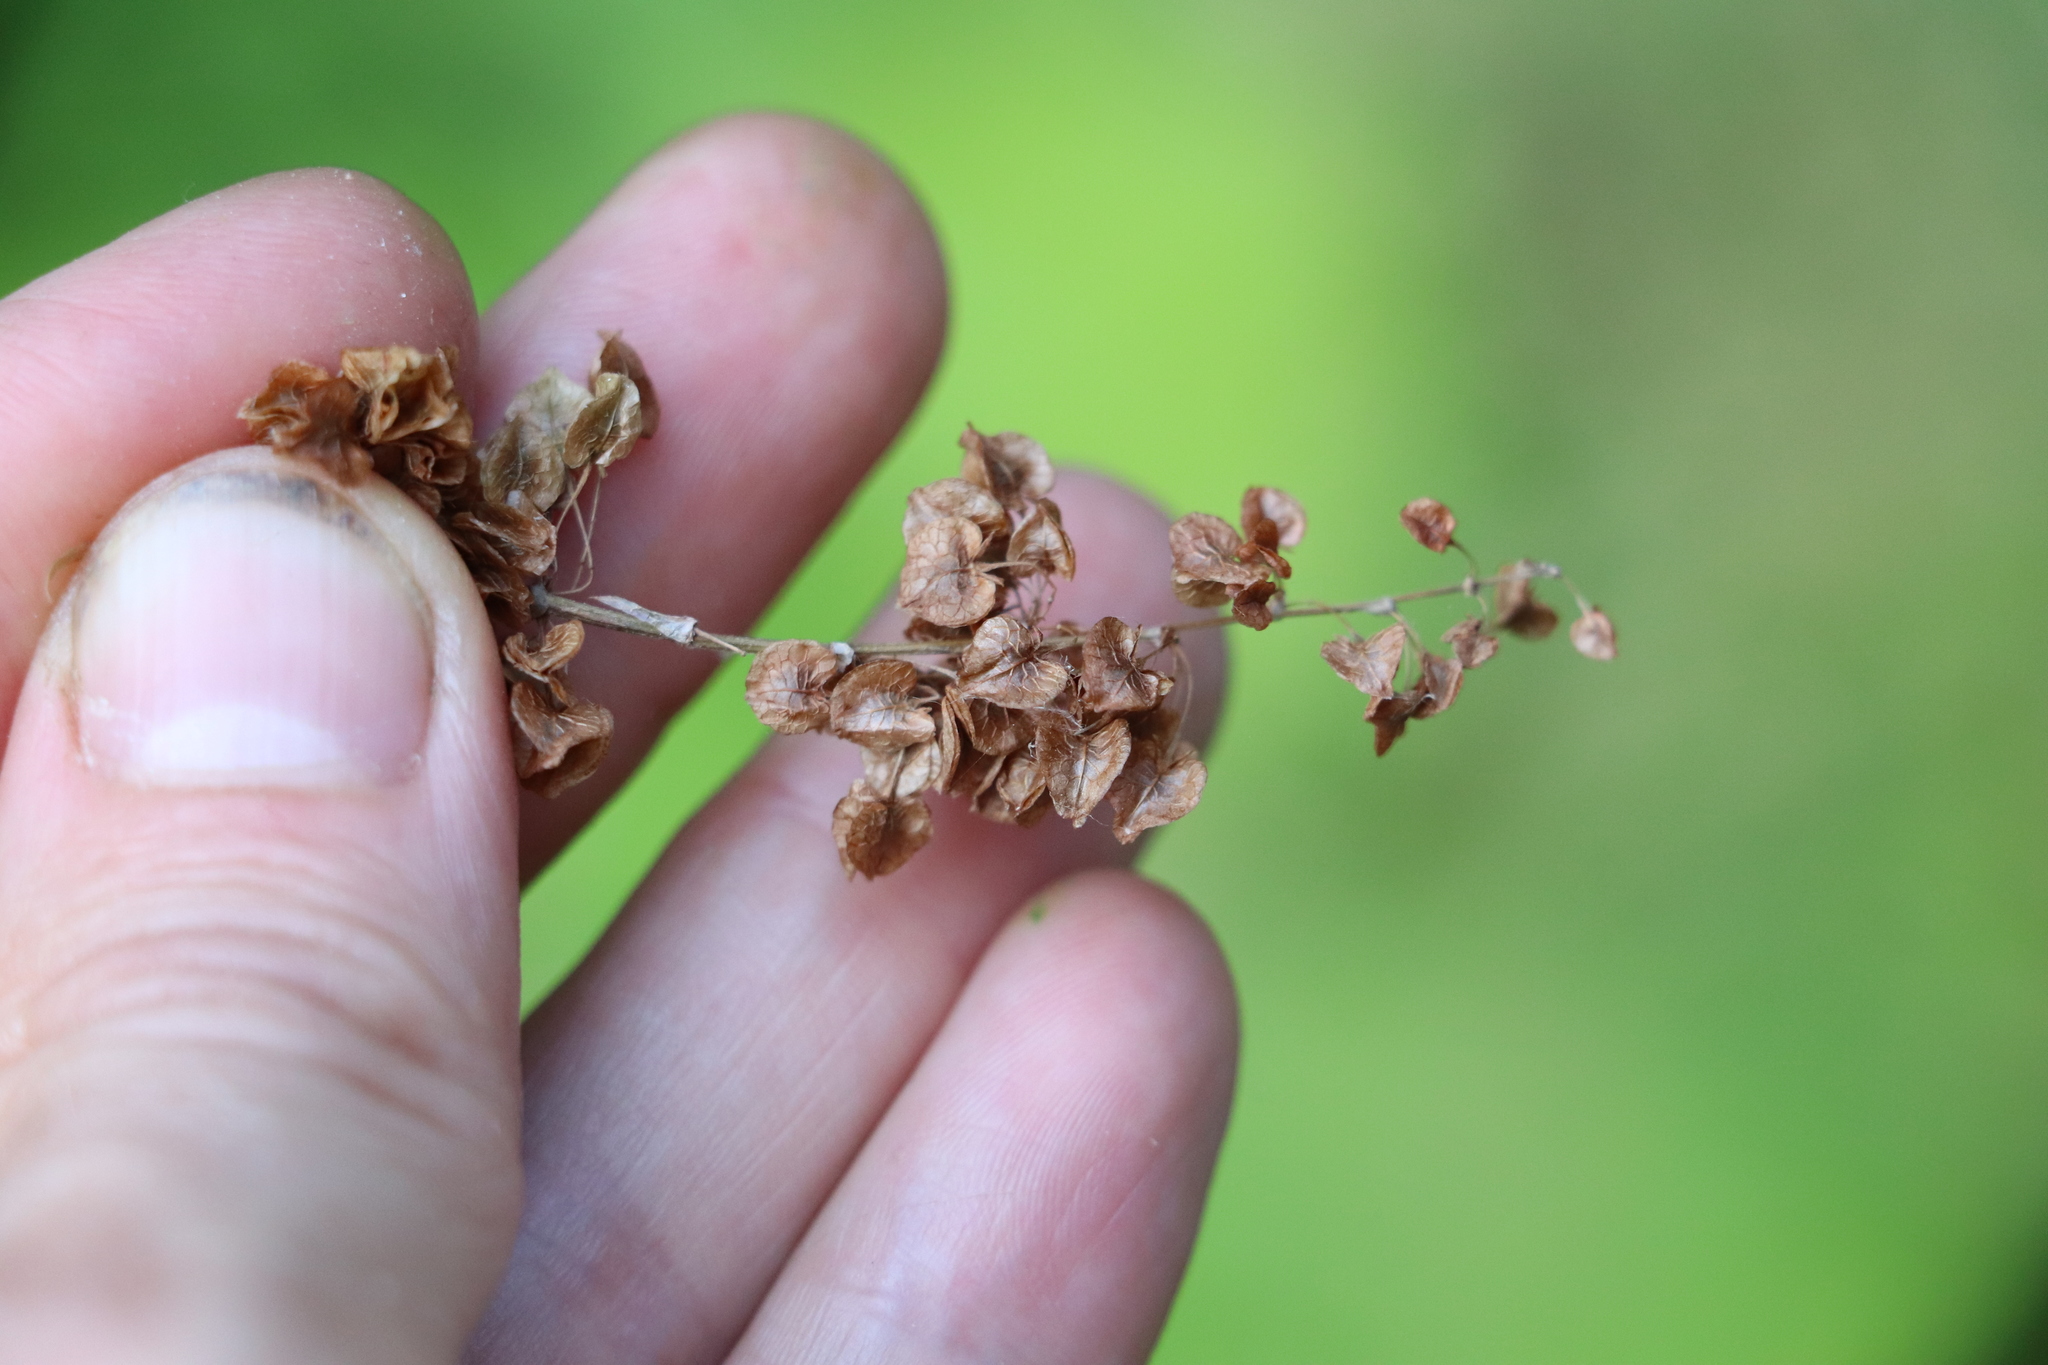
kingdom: Plantae
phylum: Tracheophyta
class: Magnoliopsida
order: Caryophyllales
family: Polygonaceae
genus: Rumex
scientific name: Rumex pseudonatronatus
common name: Field dock
